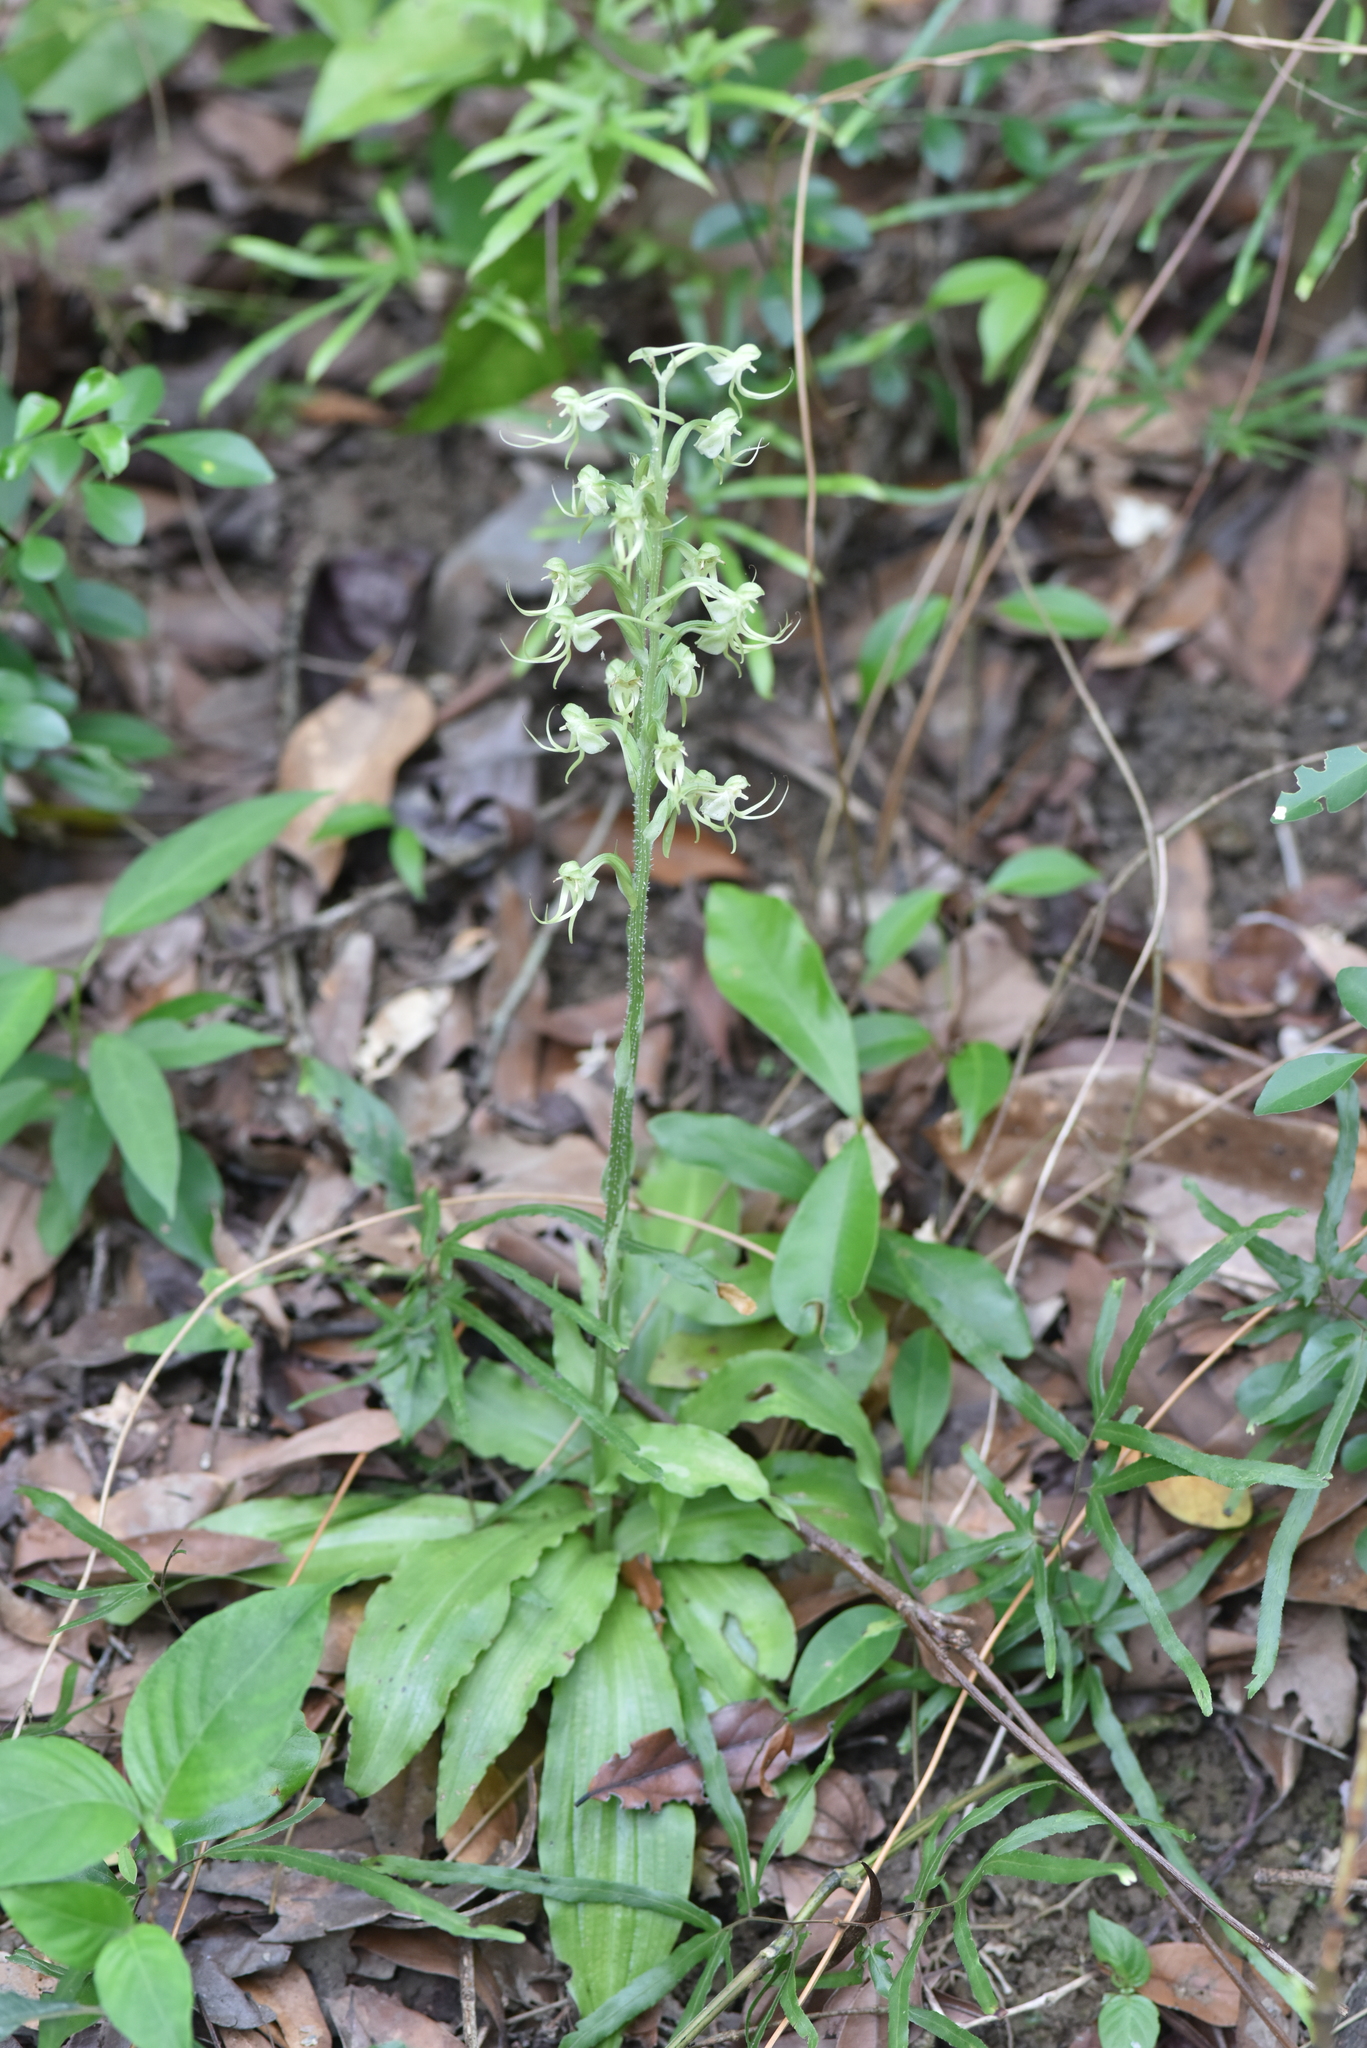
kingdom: Plantae
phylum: Tracheophyta
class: Liliopsida
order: Asparagales
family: Orchidaceae
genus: Habenaria
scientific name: Habenaria ciliolaris
